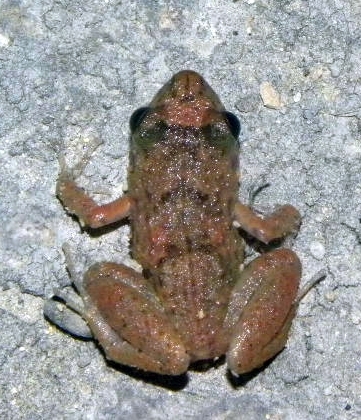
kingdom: Animalia
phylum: Chordata
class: Amphibia
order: Anura
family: Eleutherodactylidae
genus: Eleutherodactylus
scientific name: Eleutherodactylus planirostris
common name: Greenhouse frog
